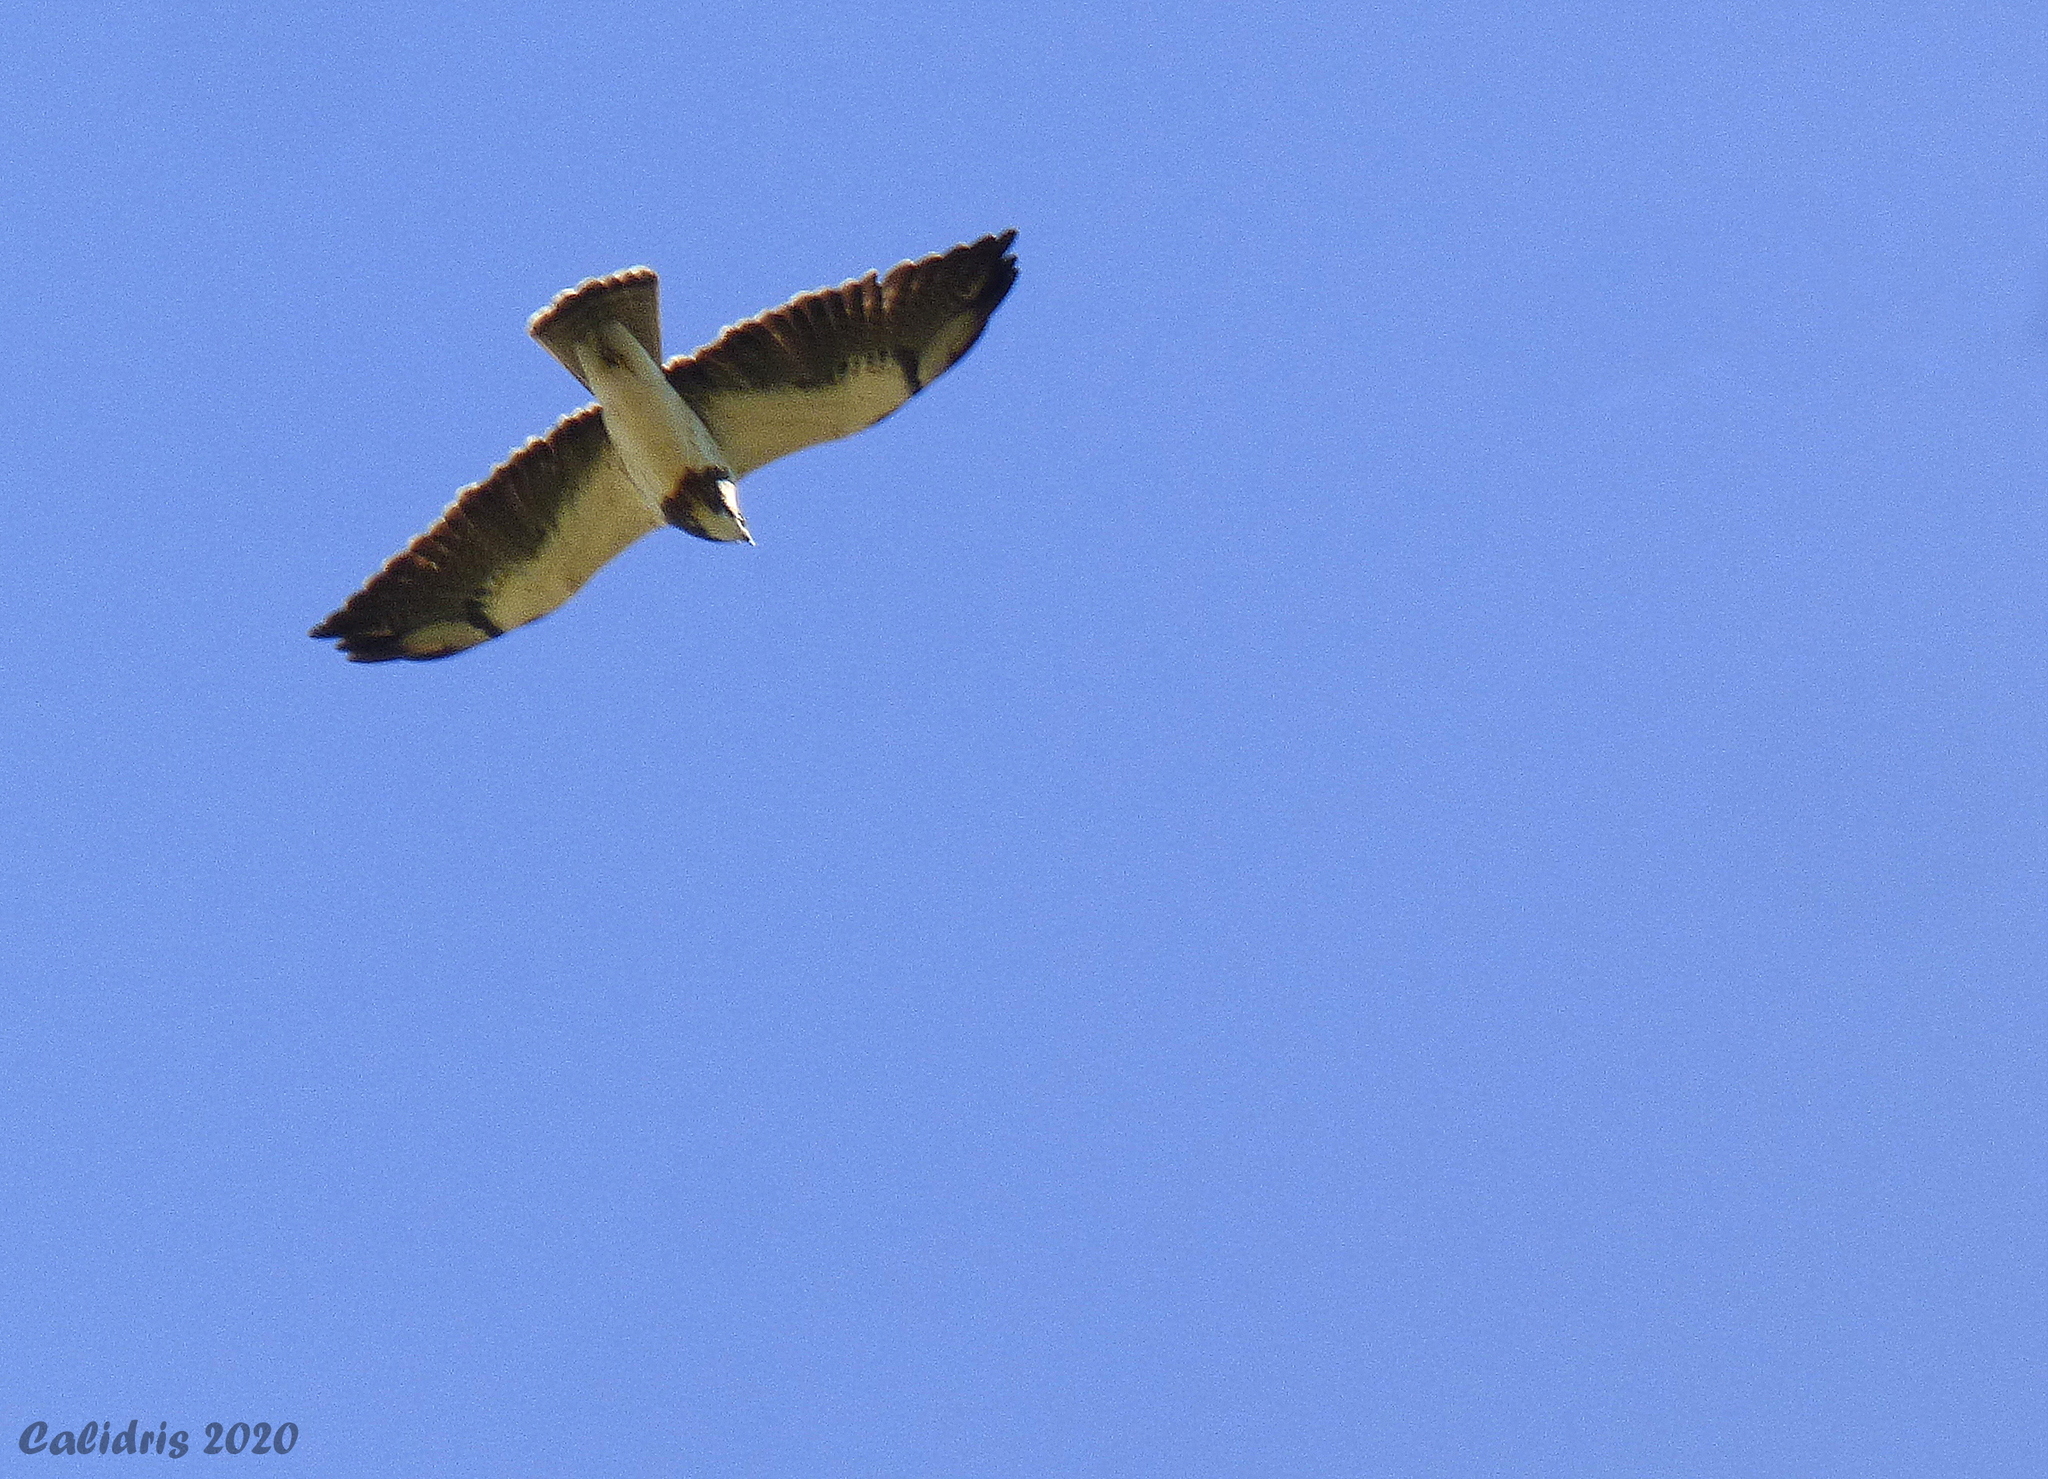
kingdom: Animalia
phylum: Chordata
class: Aves
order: Accipitriformes
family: Accipitridae
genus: Buteo
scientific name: Buteo swainsoni
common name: Swainson's hawk
